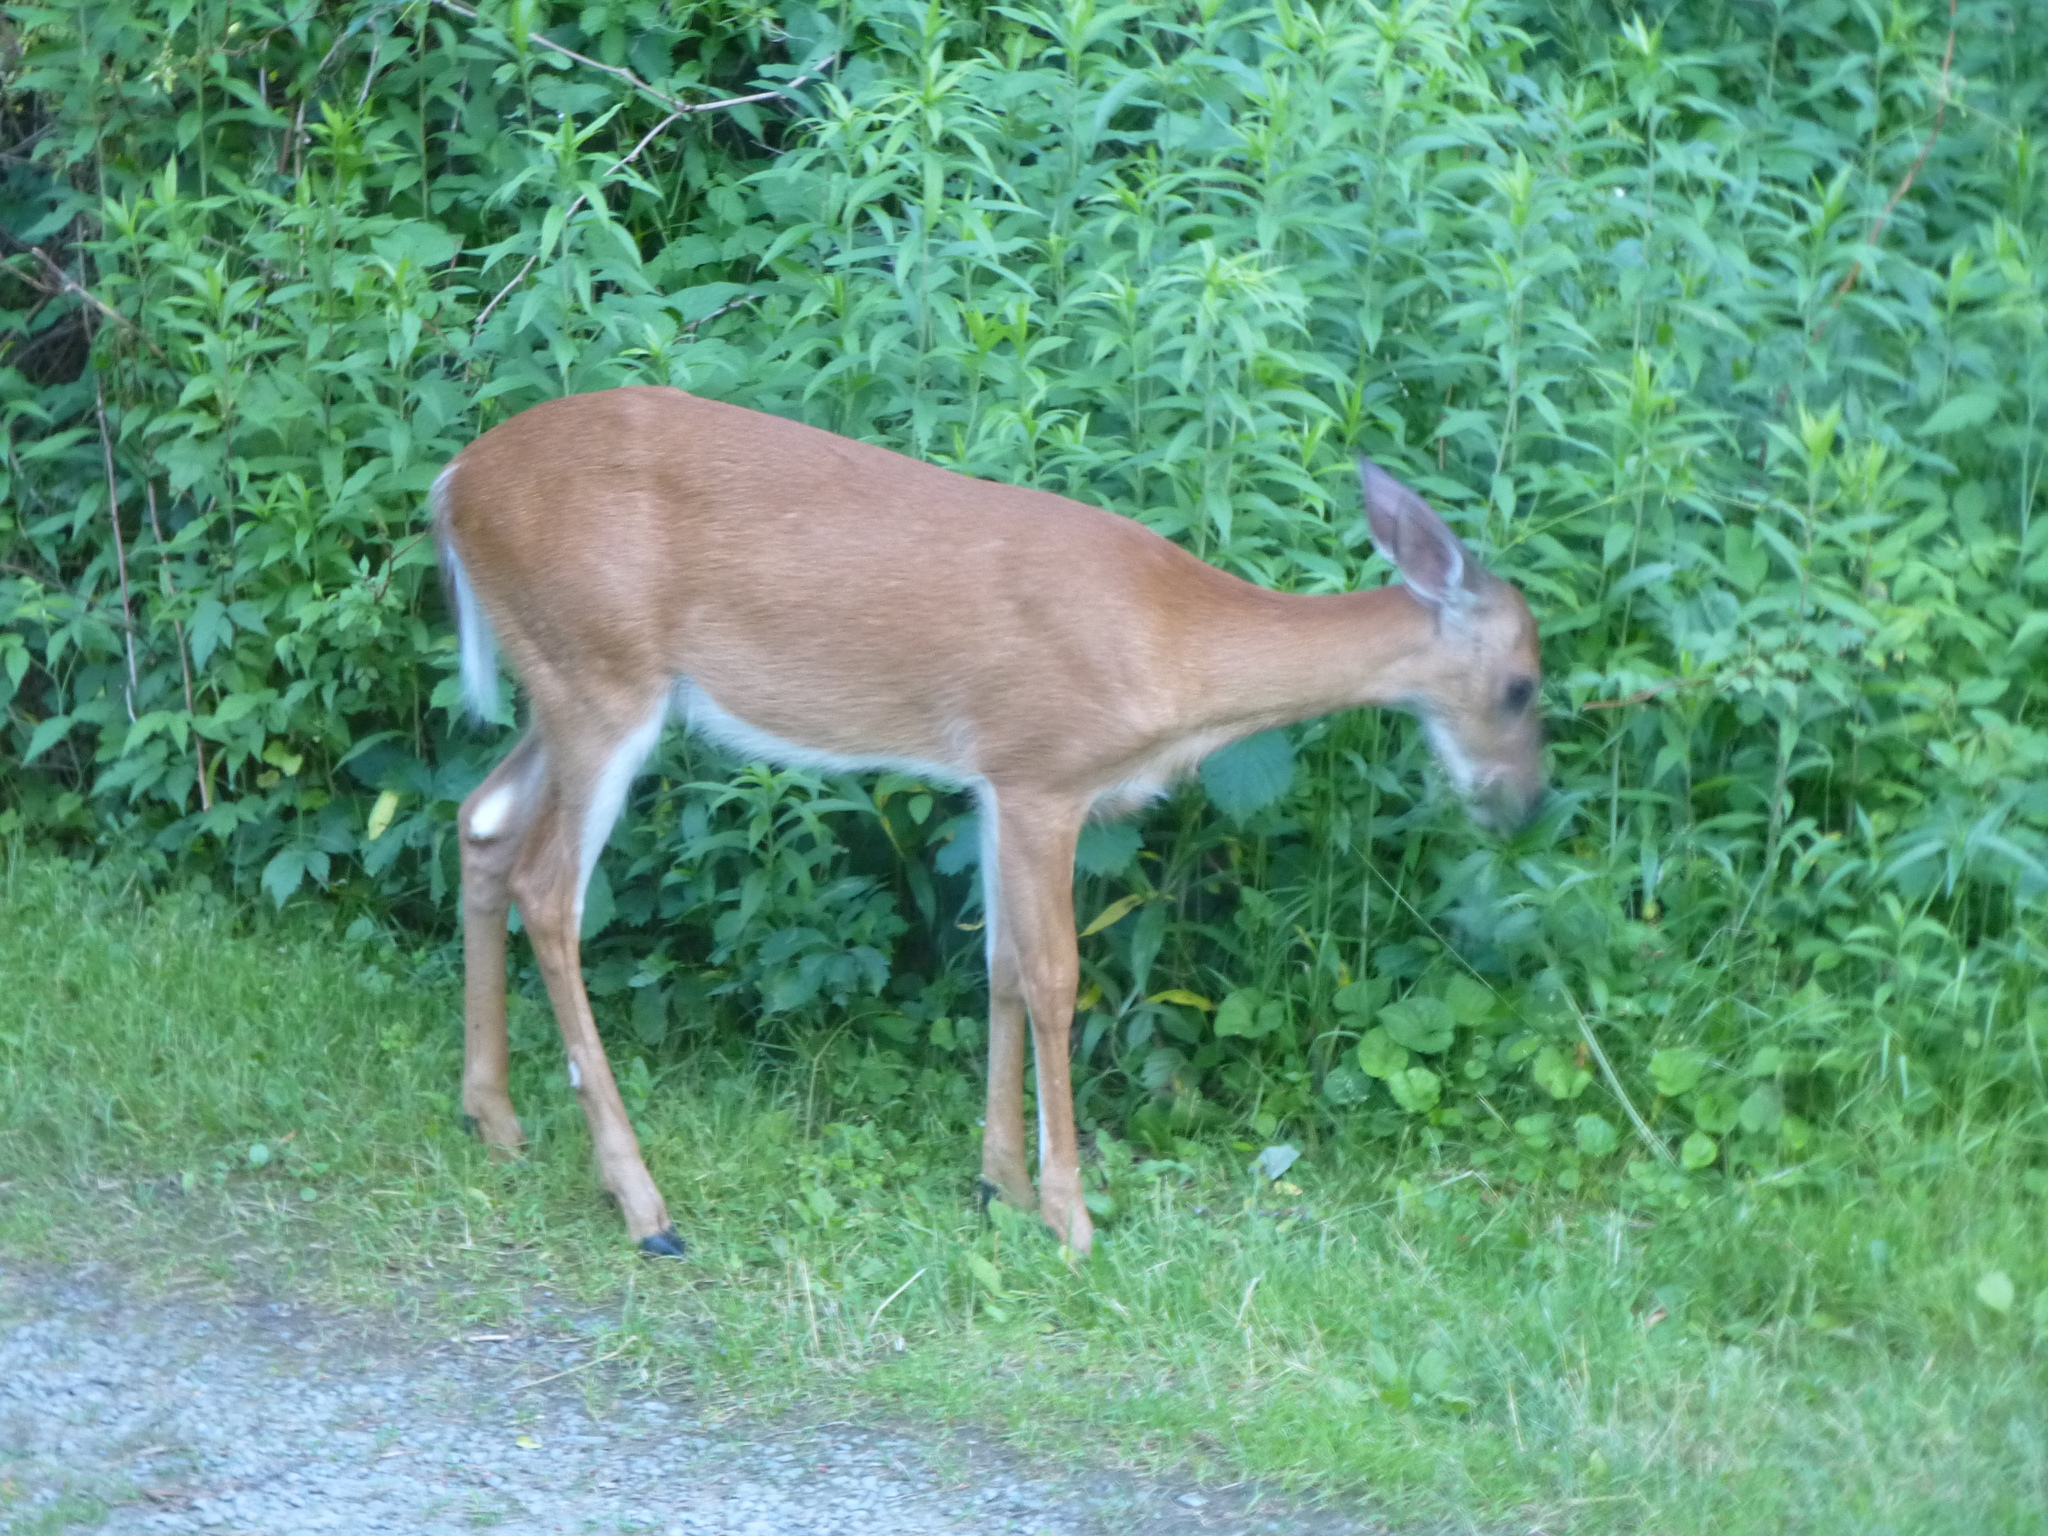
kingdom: Animalia
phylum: Chordata
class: Mammalia
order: Artiodactyla
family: Cervidae
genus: Odocoileus
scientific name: Odocoileus virginianus
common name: White-tailed deer
